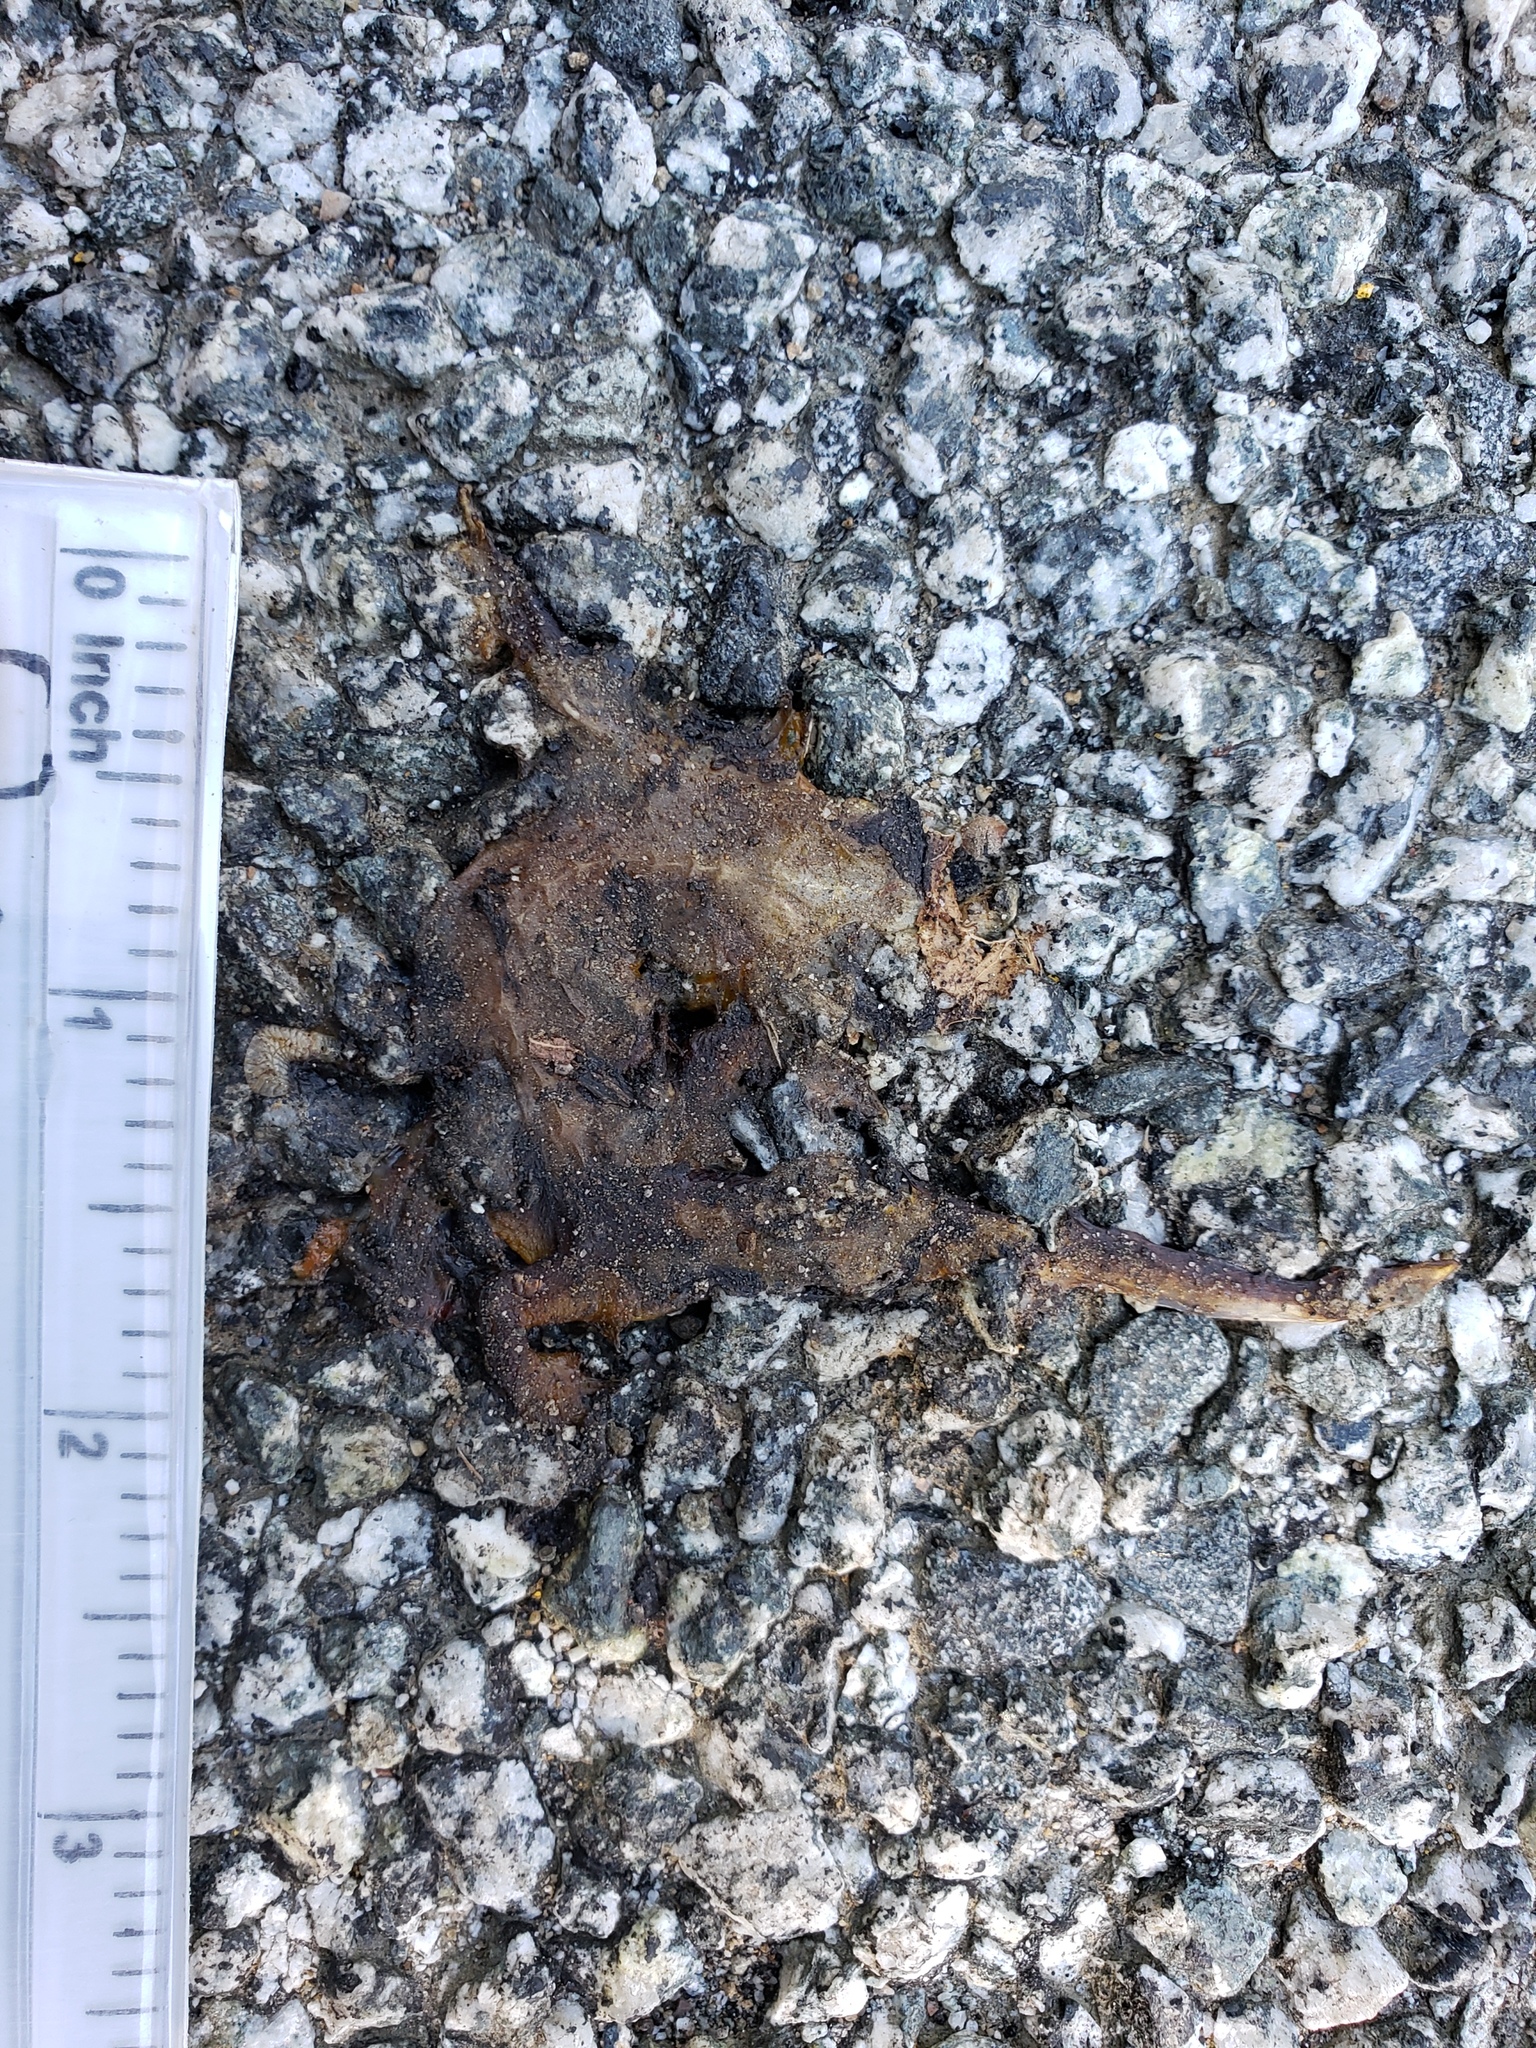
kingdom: Animalia
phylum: Chordata
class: Amphibia
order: Caudata
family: Salamandridae
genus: Taricha
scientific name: Taricha
